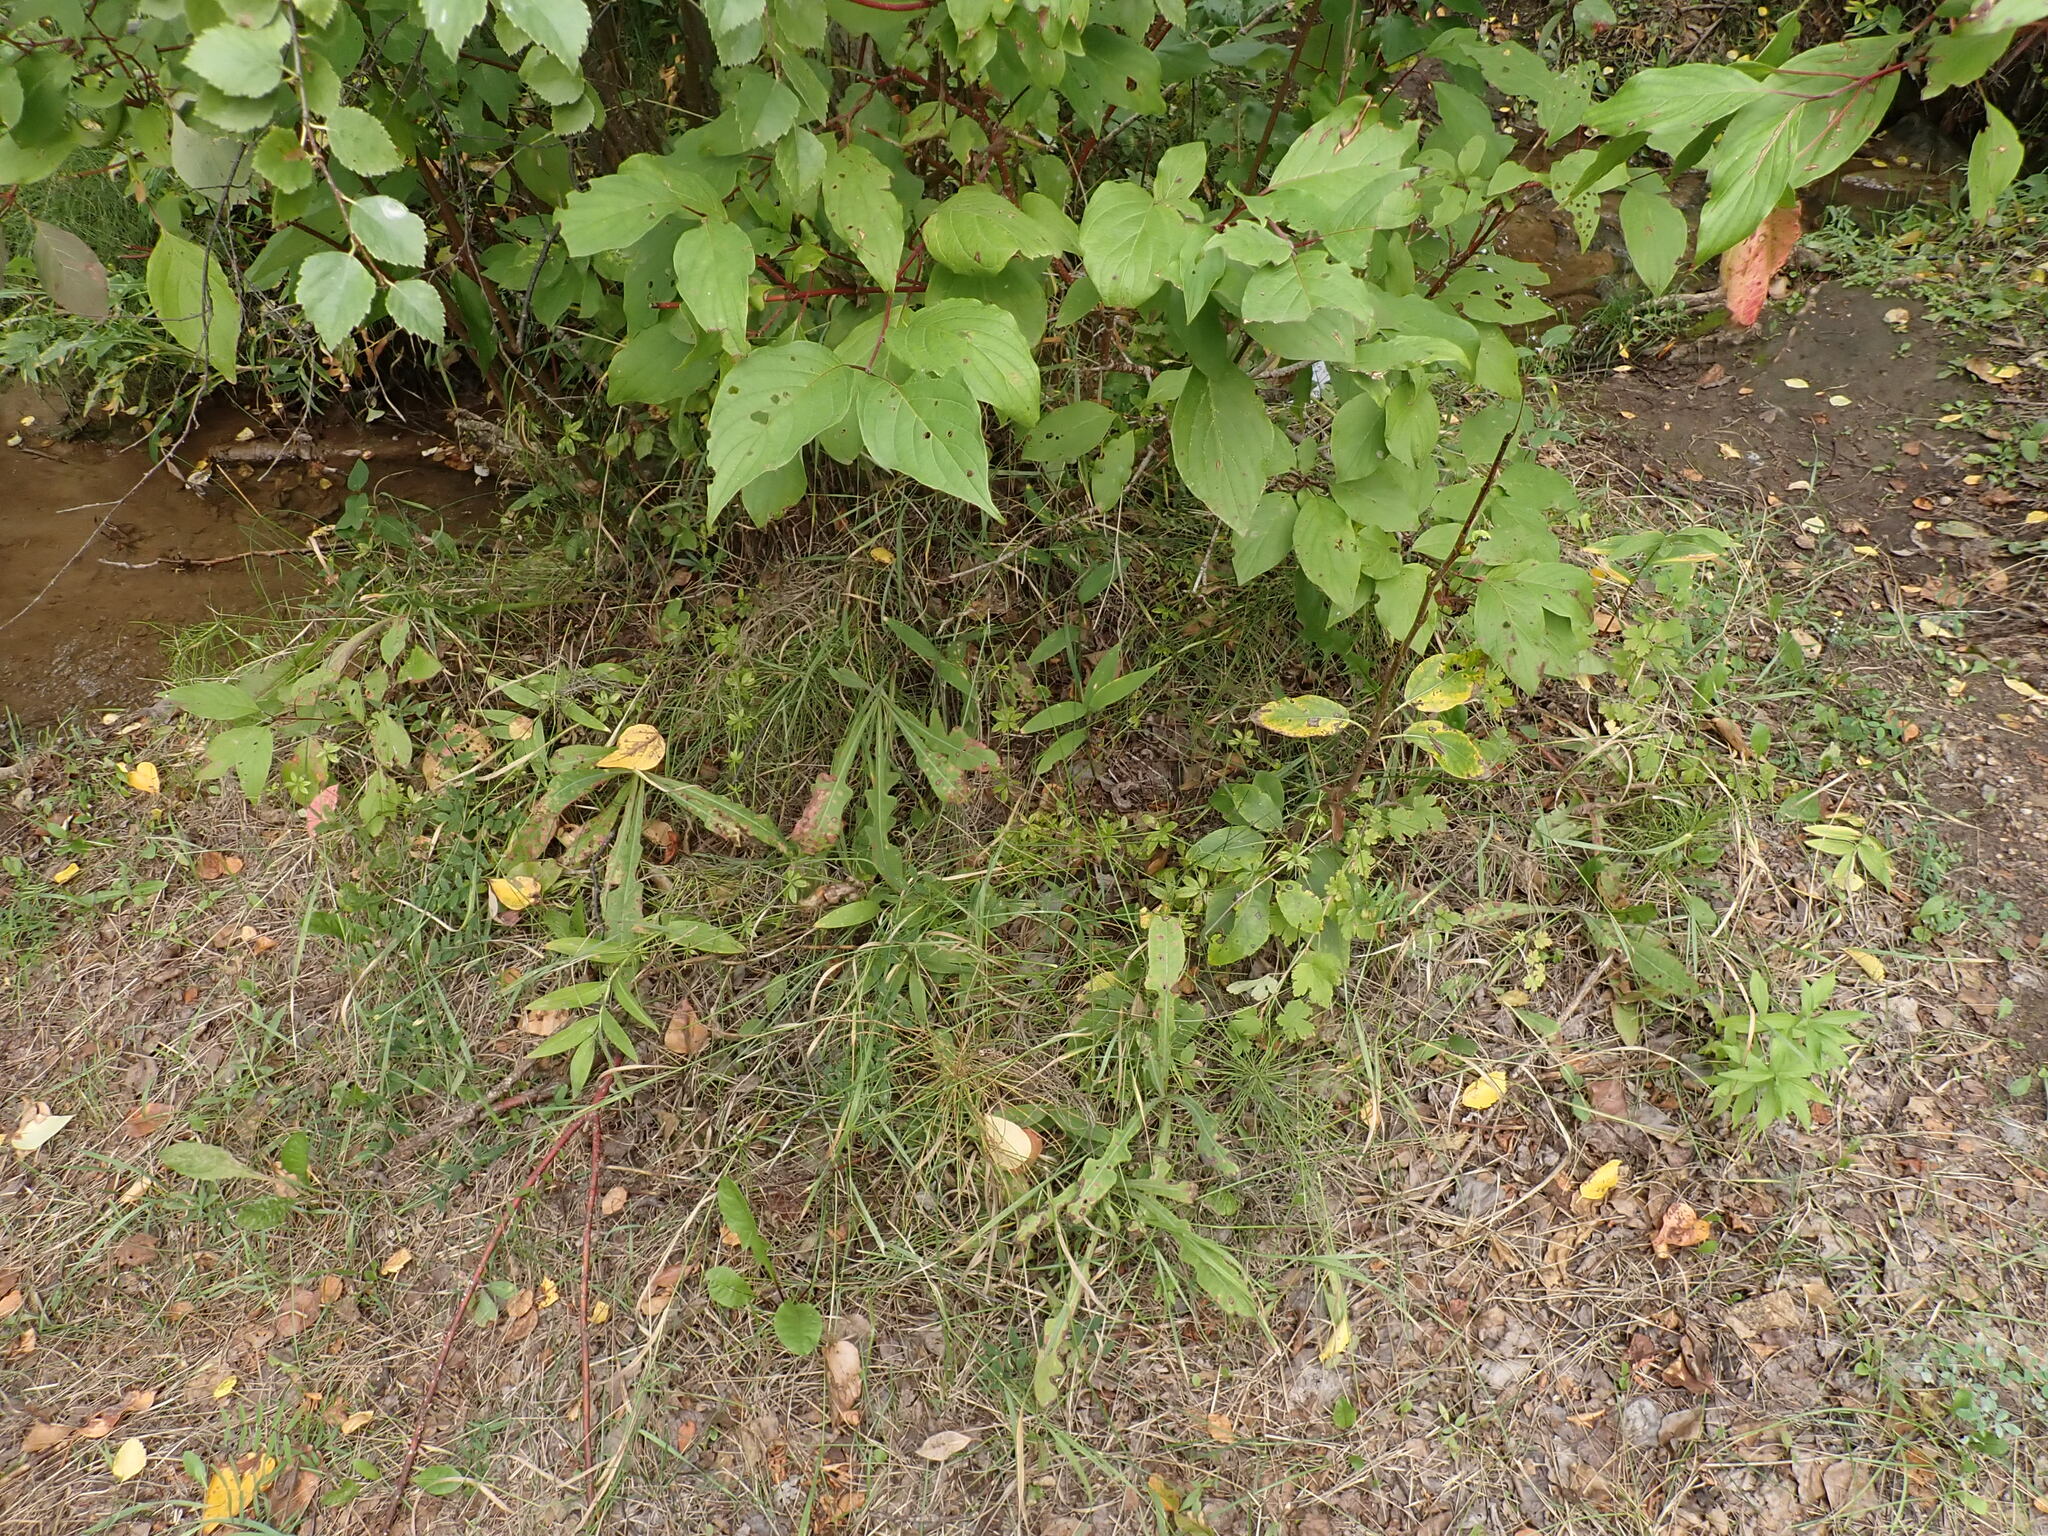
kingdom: Plantae
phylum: Tracheophyta
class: Magnoliopsida
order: Gentianales
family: Rubiaceae
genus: Galium
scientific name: Galium triflorum
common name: Fragrant bedstraw
